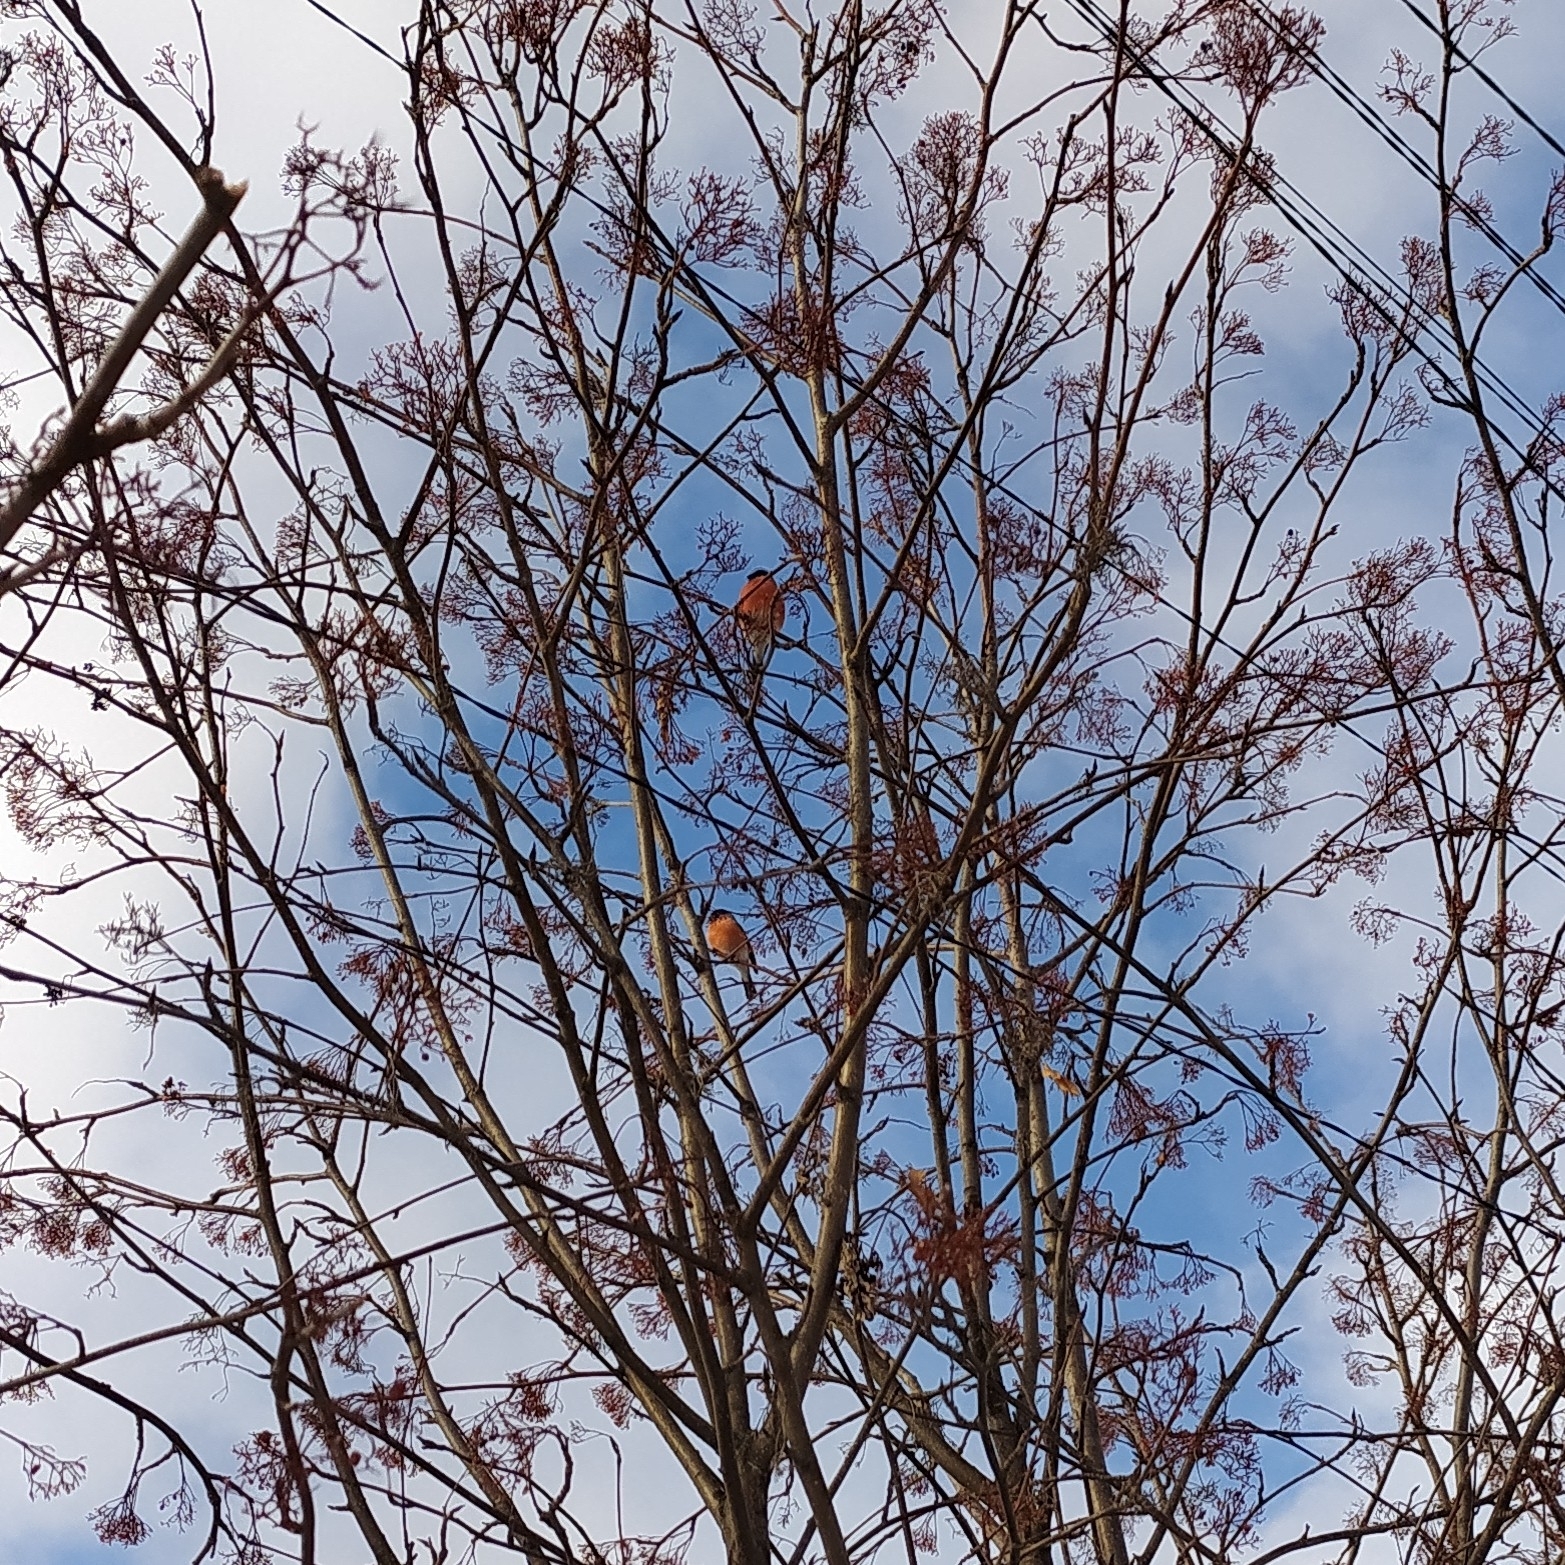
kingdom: Animalia
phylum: Chordata
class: Aves
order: Passeriformes
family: Fringillidae
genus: Pyrrhula
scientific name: Pyrrhula pyrrhula
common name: Eurasian bullfinch
